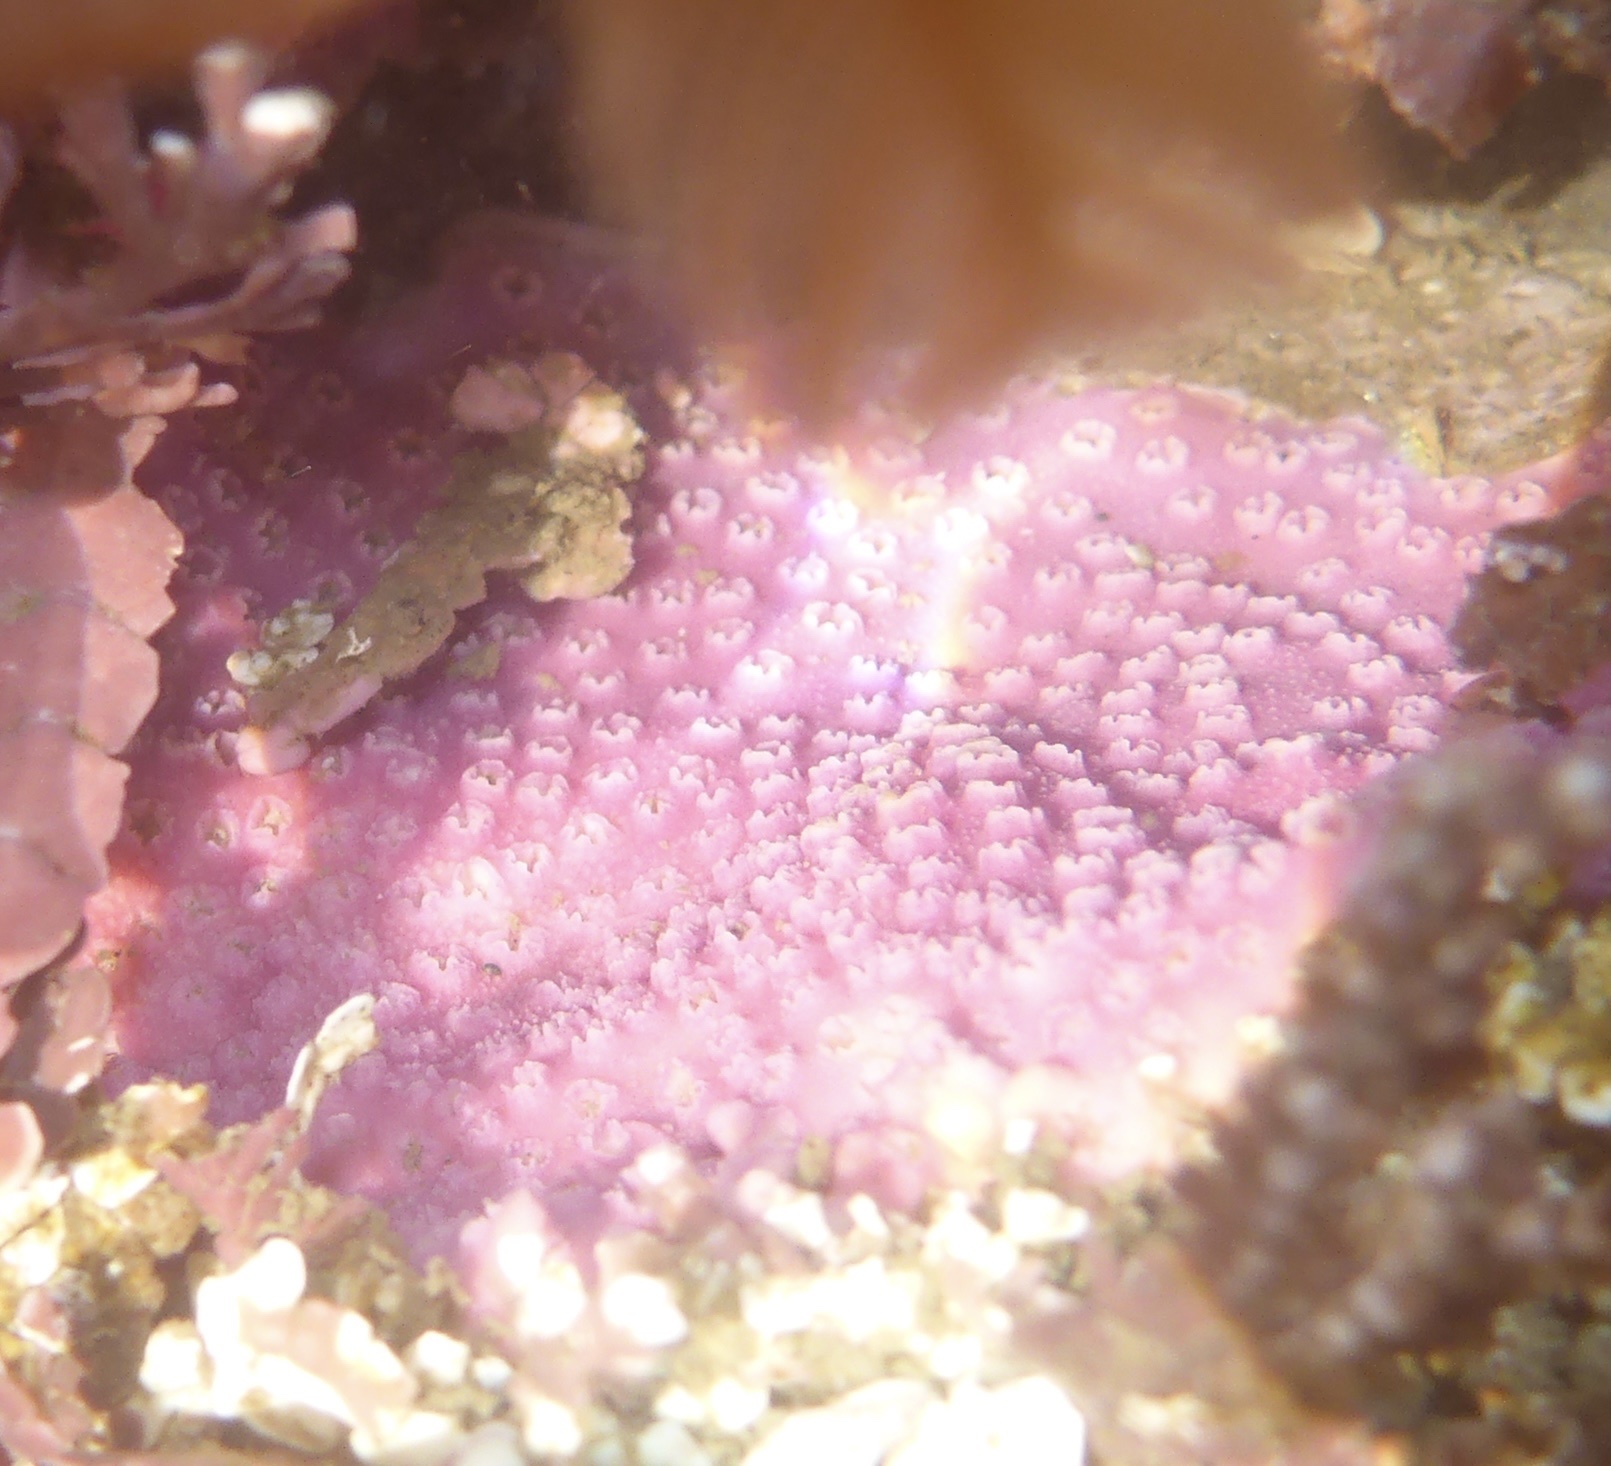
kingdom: Animalia
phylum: Cnidaria
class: Hydrozoa
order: Anthoathecata
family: Stylasteridae
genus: Stylantheca
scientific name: Stylantheca papillosa
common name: Corrugated lace hydrocoral
